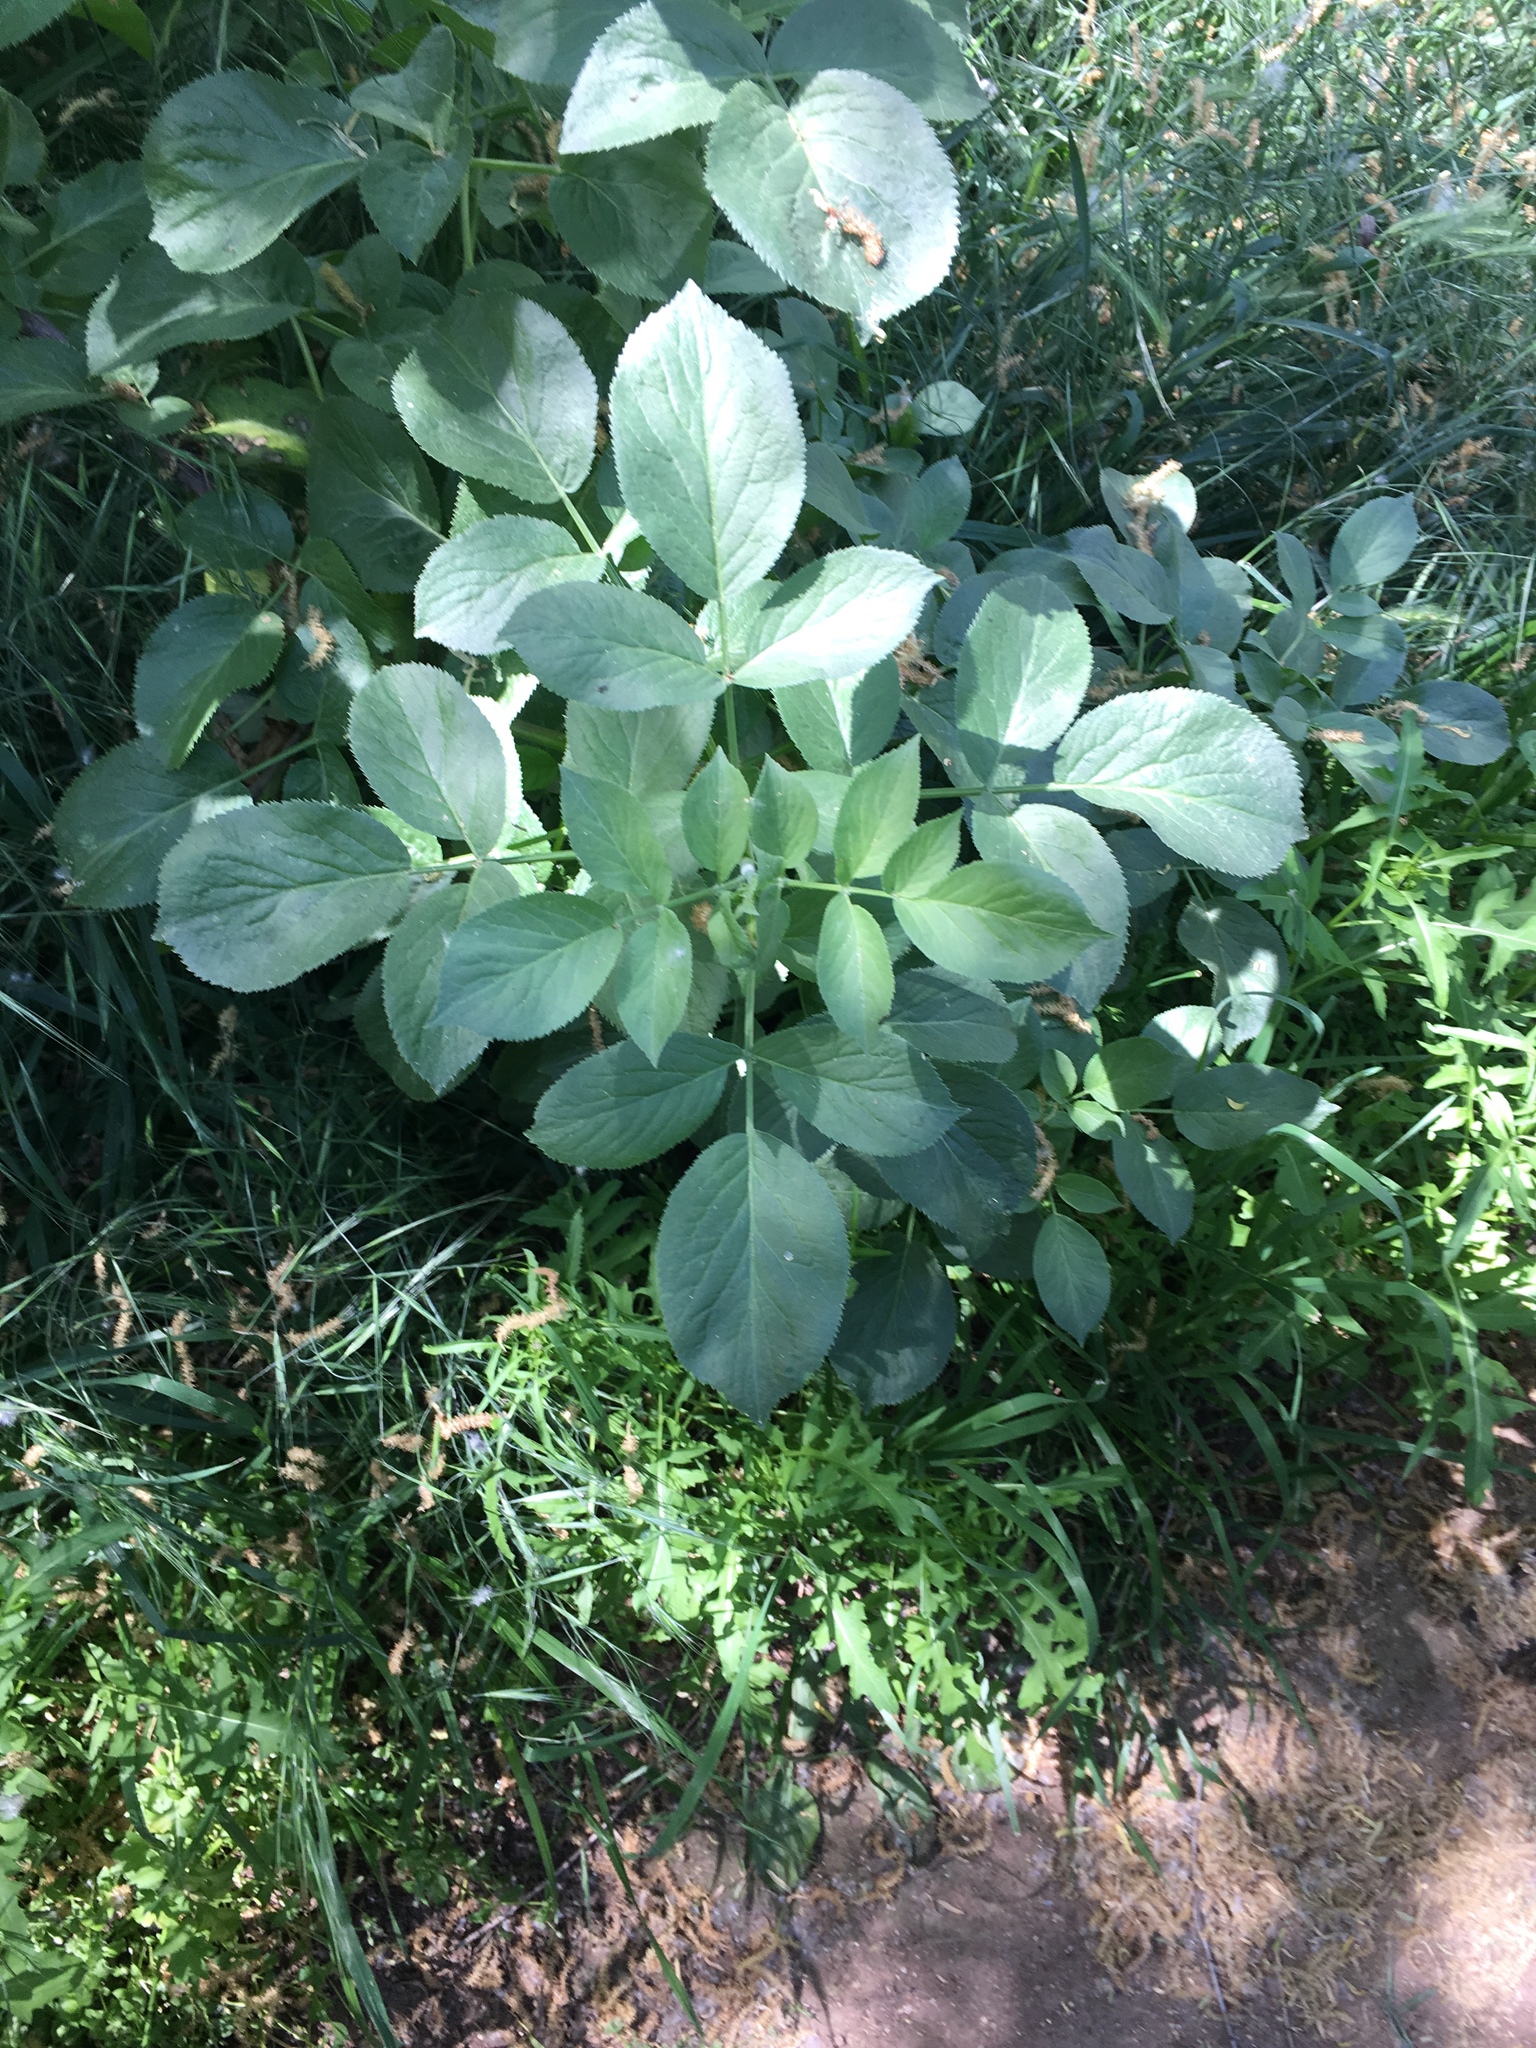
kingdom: Plantae
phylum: Tracheophyta
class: Magnoliopsida
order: Dipsacales
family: Viburnaceae
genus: Sambucus
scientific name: Sambucus cerulea
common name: Blue elder
